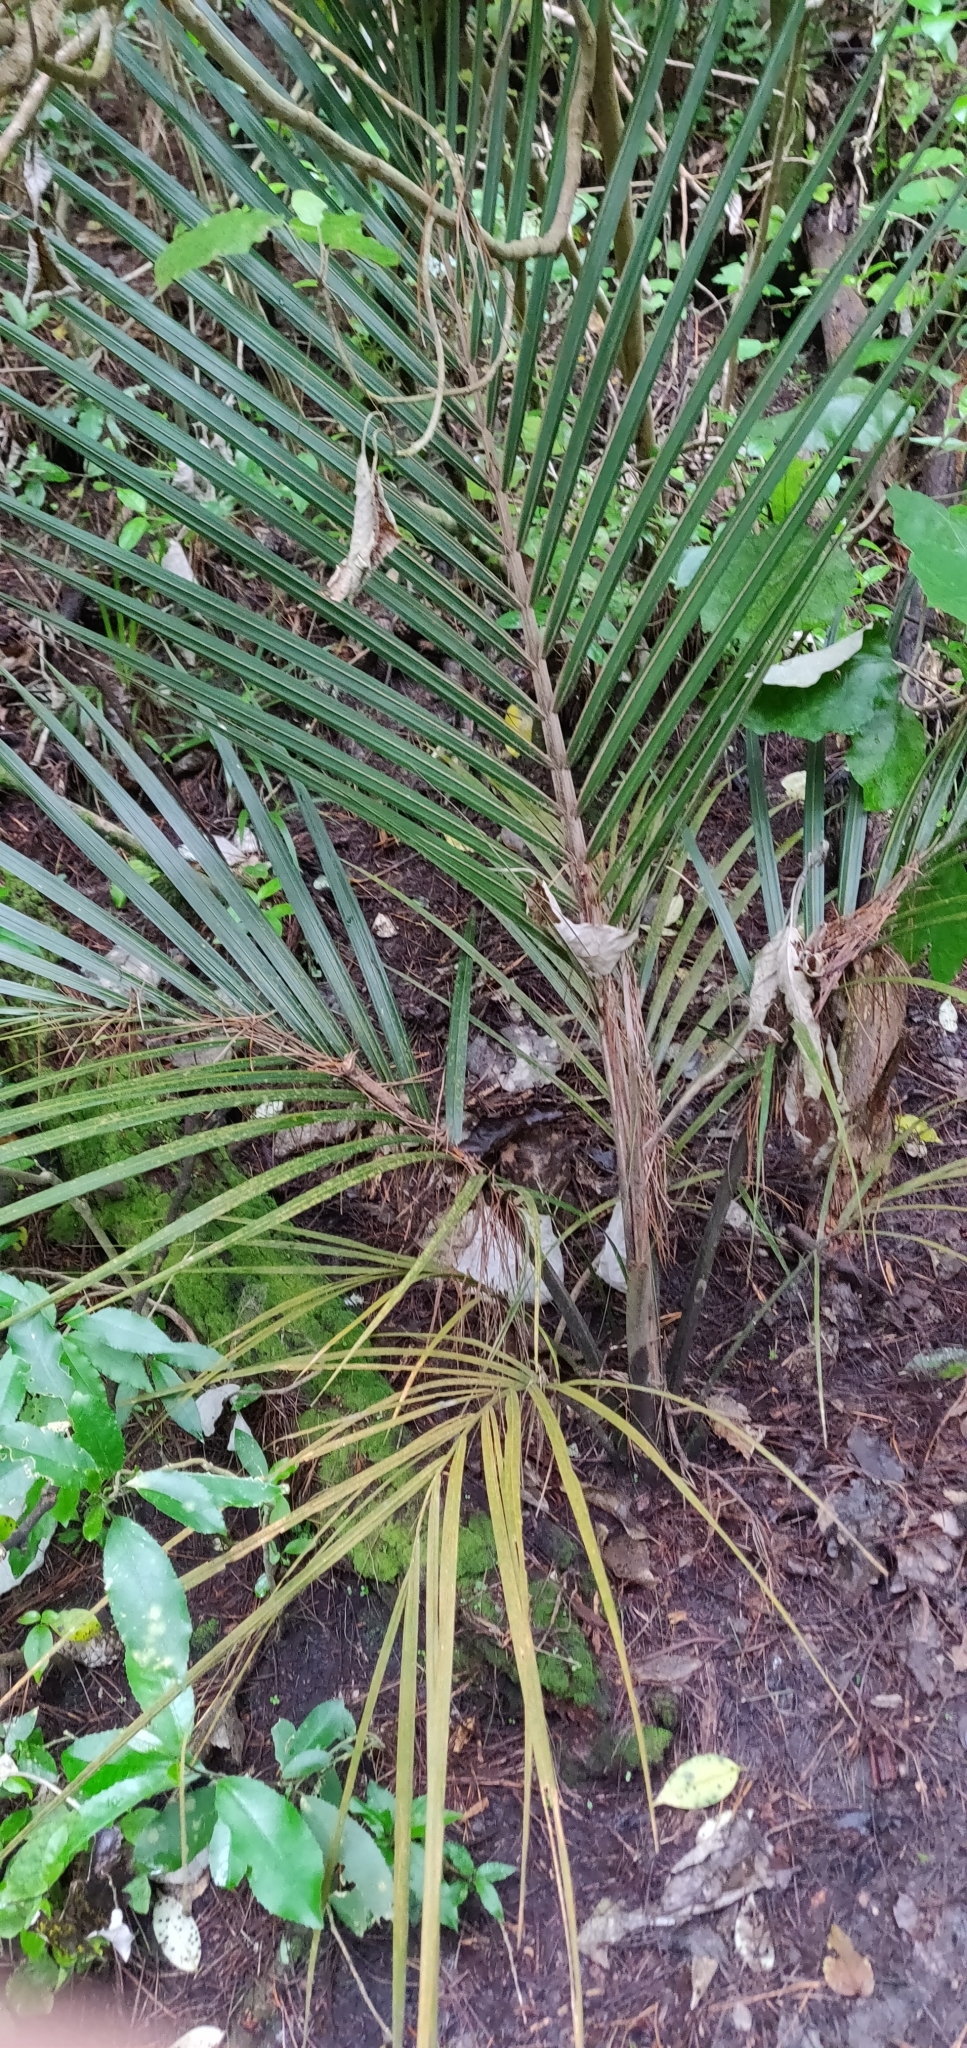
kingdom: Plantae
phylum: Tracheophyta
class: Liliopsida
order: Arecales
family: Arecaceae
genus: Rhopalostylis
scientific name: Rhopalostylis sapida
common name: Feather-duster palm
